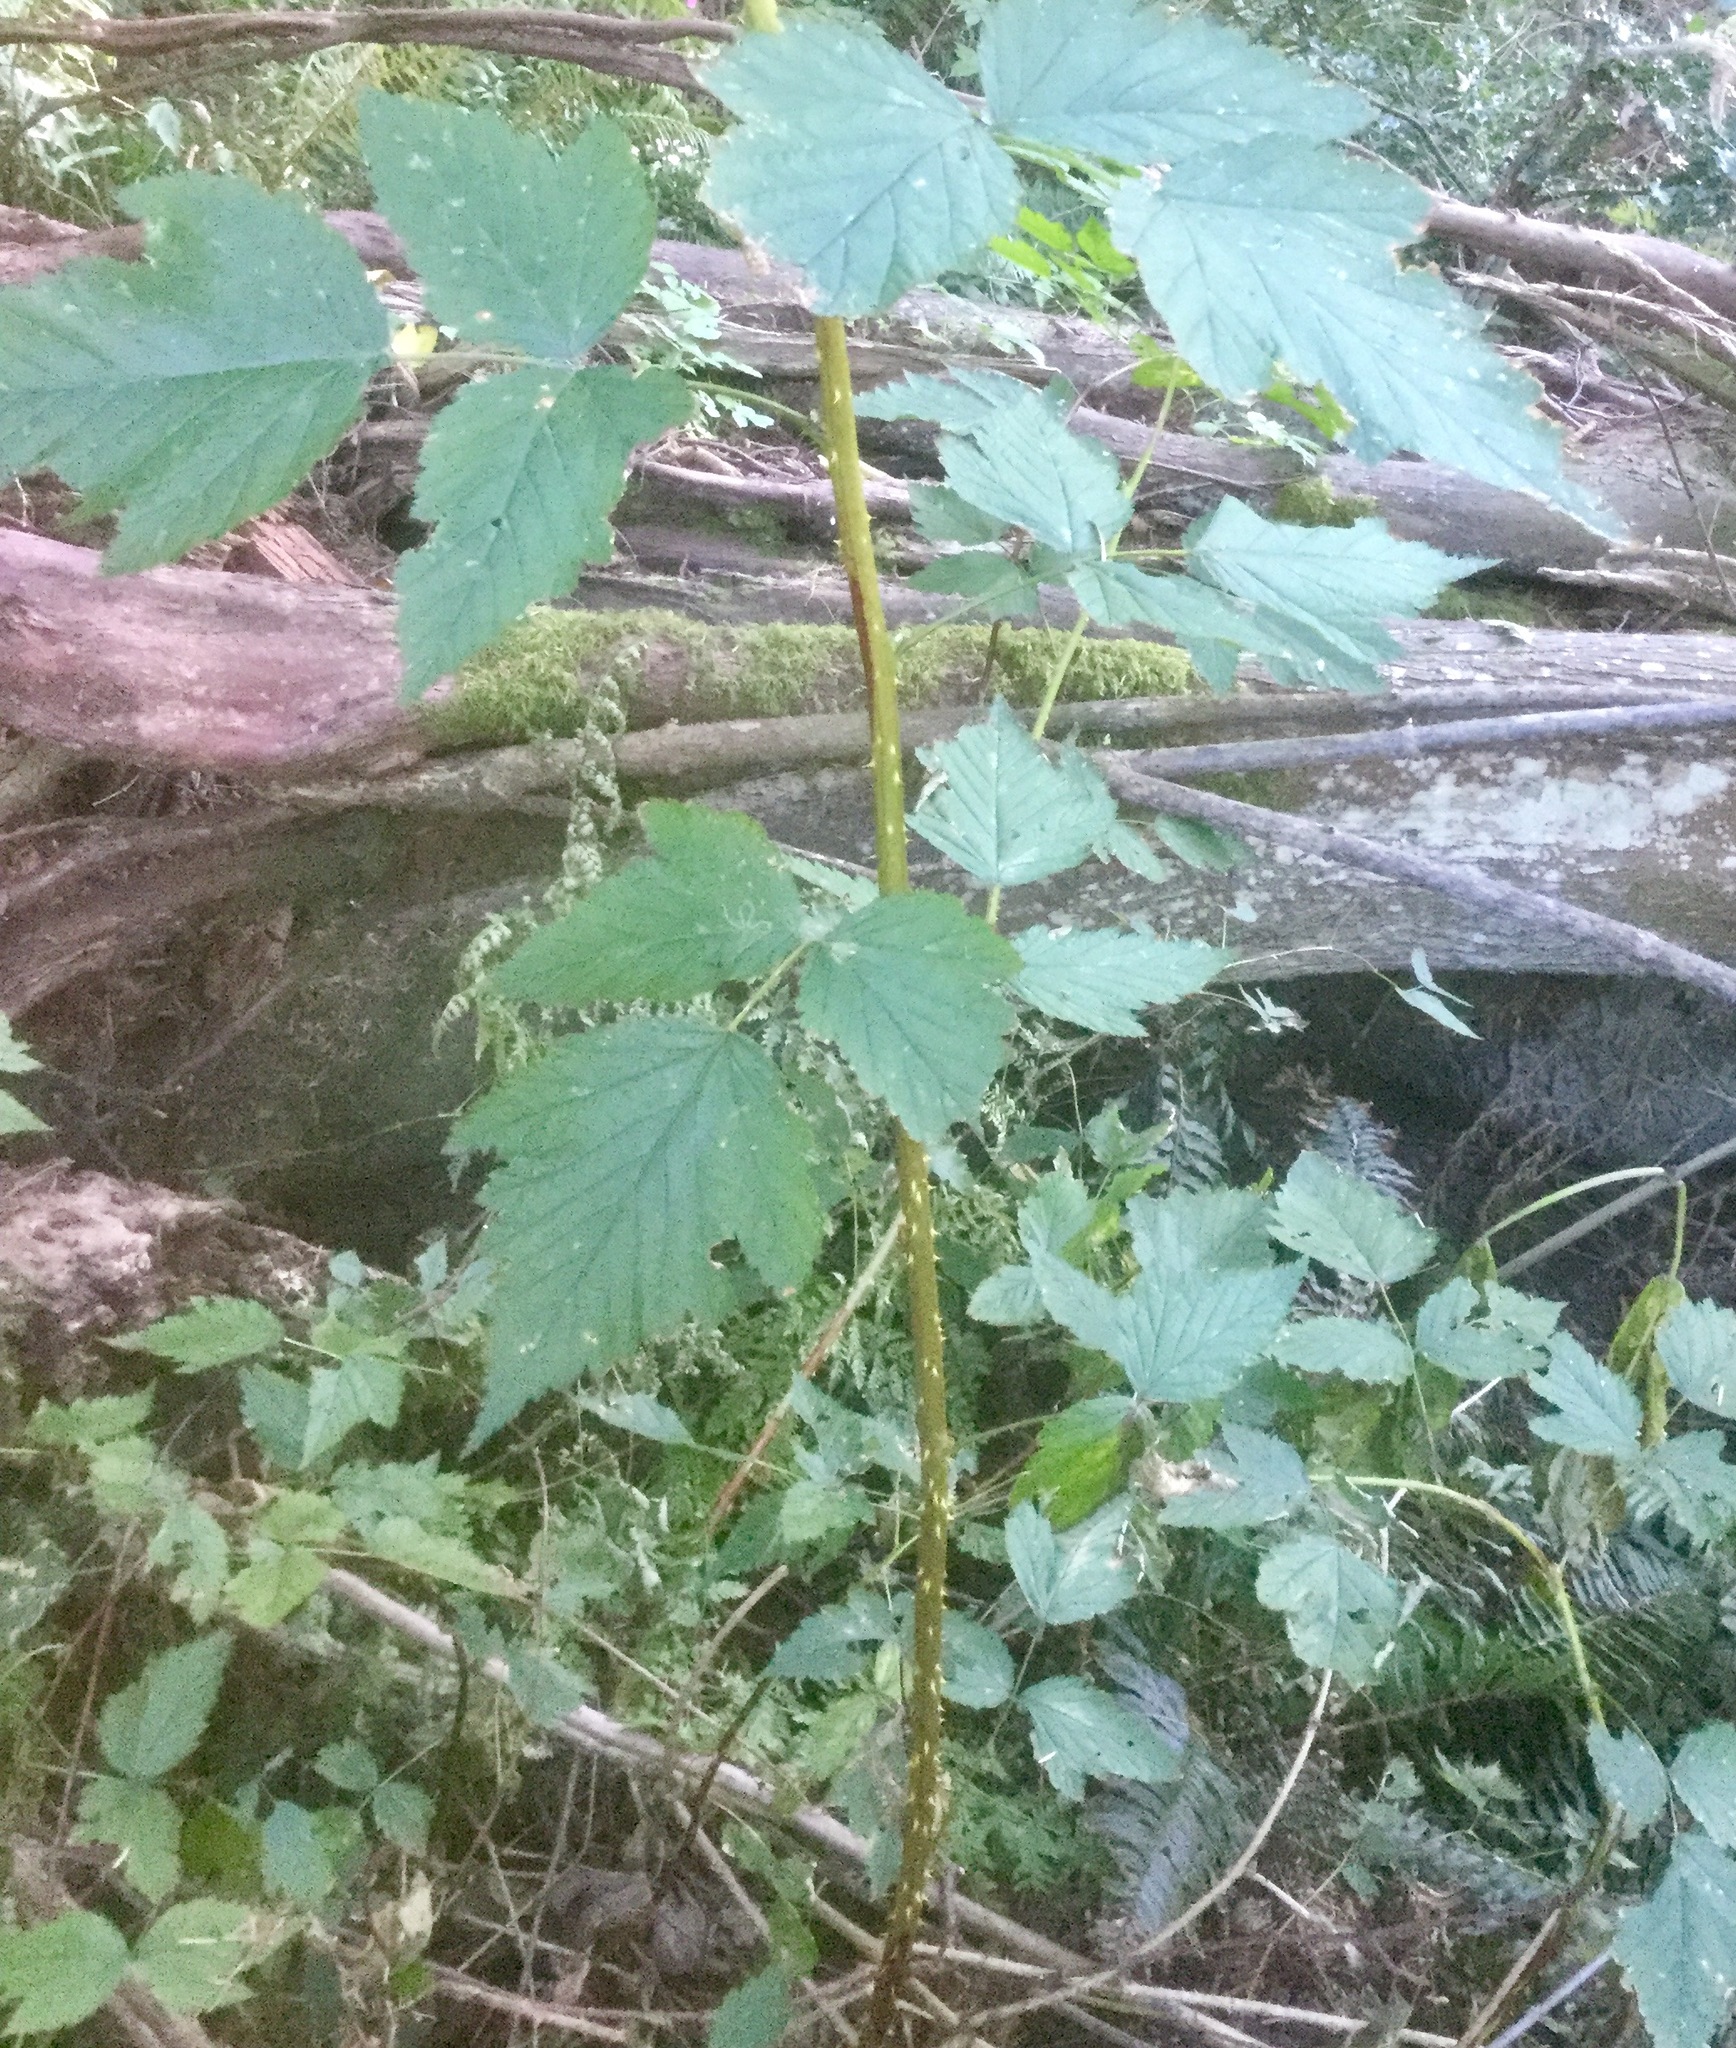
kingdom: Plantae
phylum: Tracheophyta
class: Magnoliopsida
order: Rosales
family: Rosaceae
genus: Rubus
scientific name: Rubus spectabilis
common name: Salmonberry
